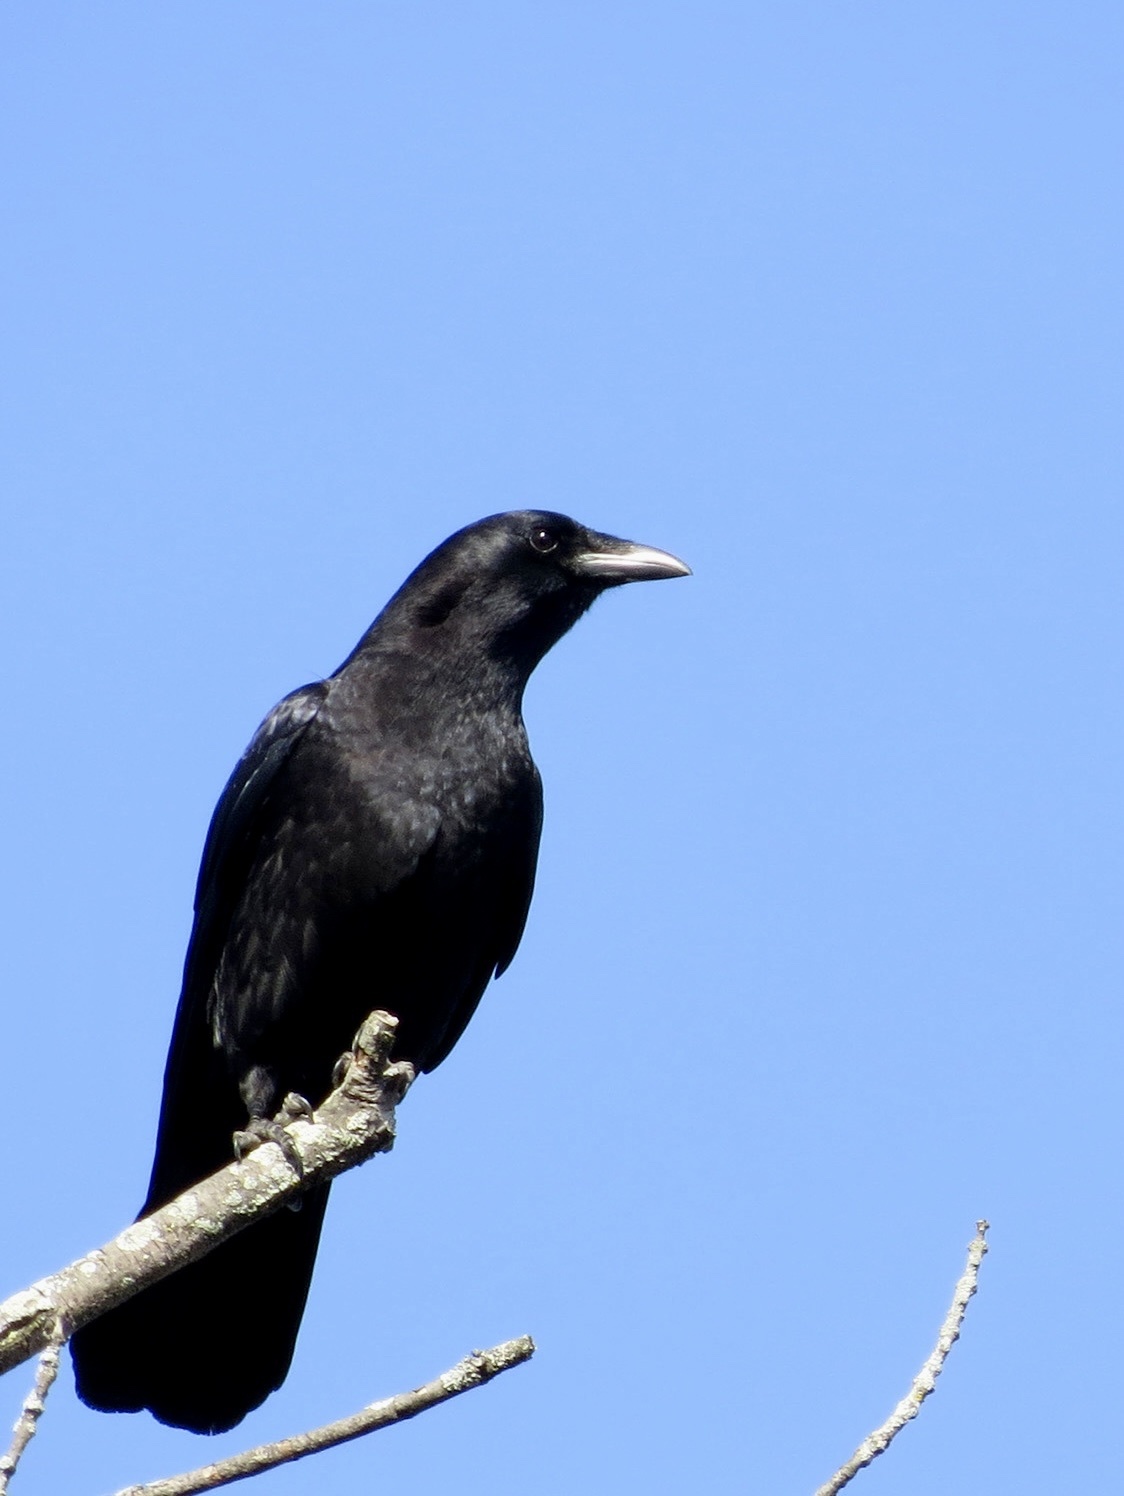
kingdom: Animalia
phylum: Chordata
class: Aves
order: Passeriformes
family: Corvidae
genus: Corvus
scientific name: Corvus brachyrhynchos
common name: American crow
